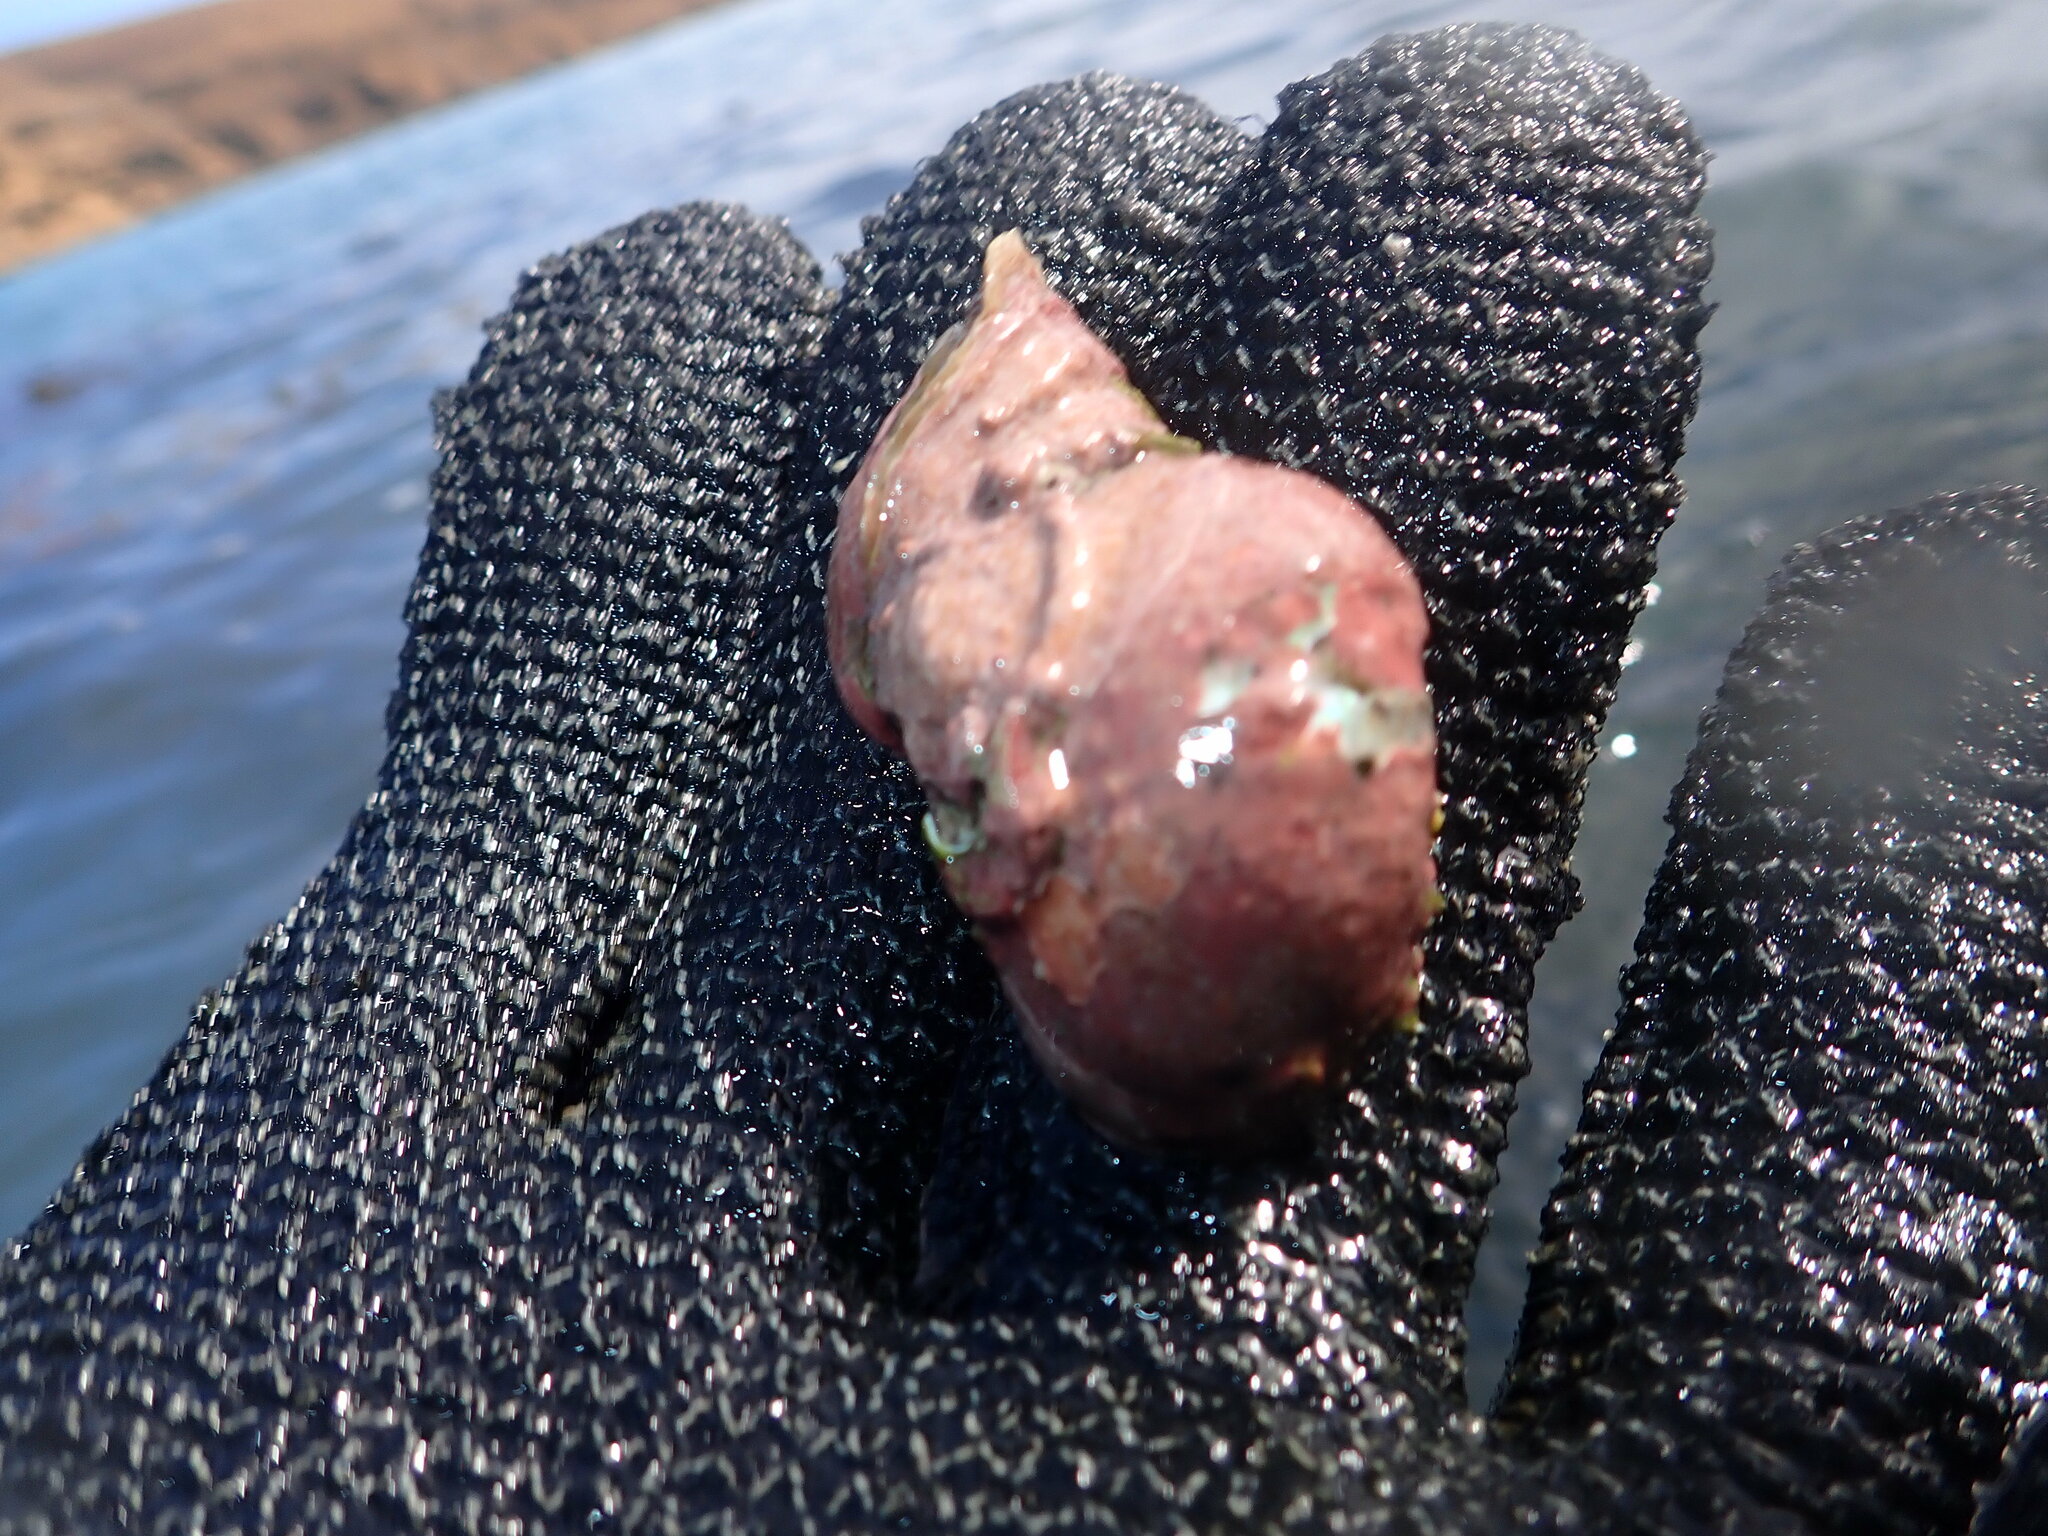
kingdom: Animalia
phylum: Mollusca
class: Gastropoda
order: Trochida
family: Turbinidae
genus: Lunella
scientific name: Lunella smaragda
